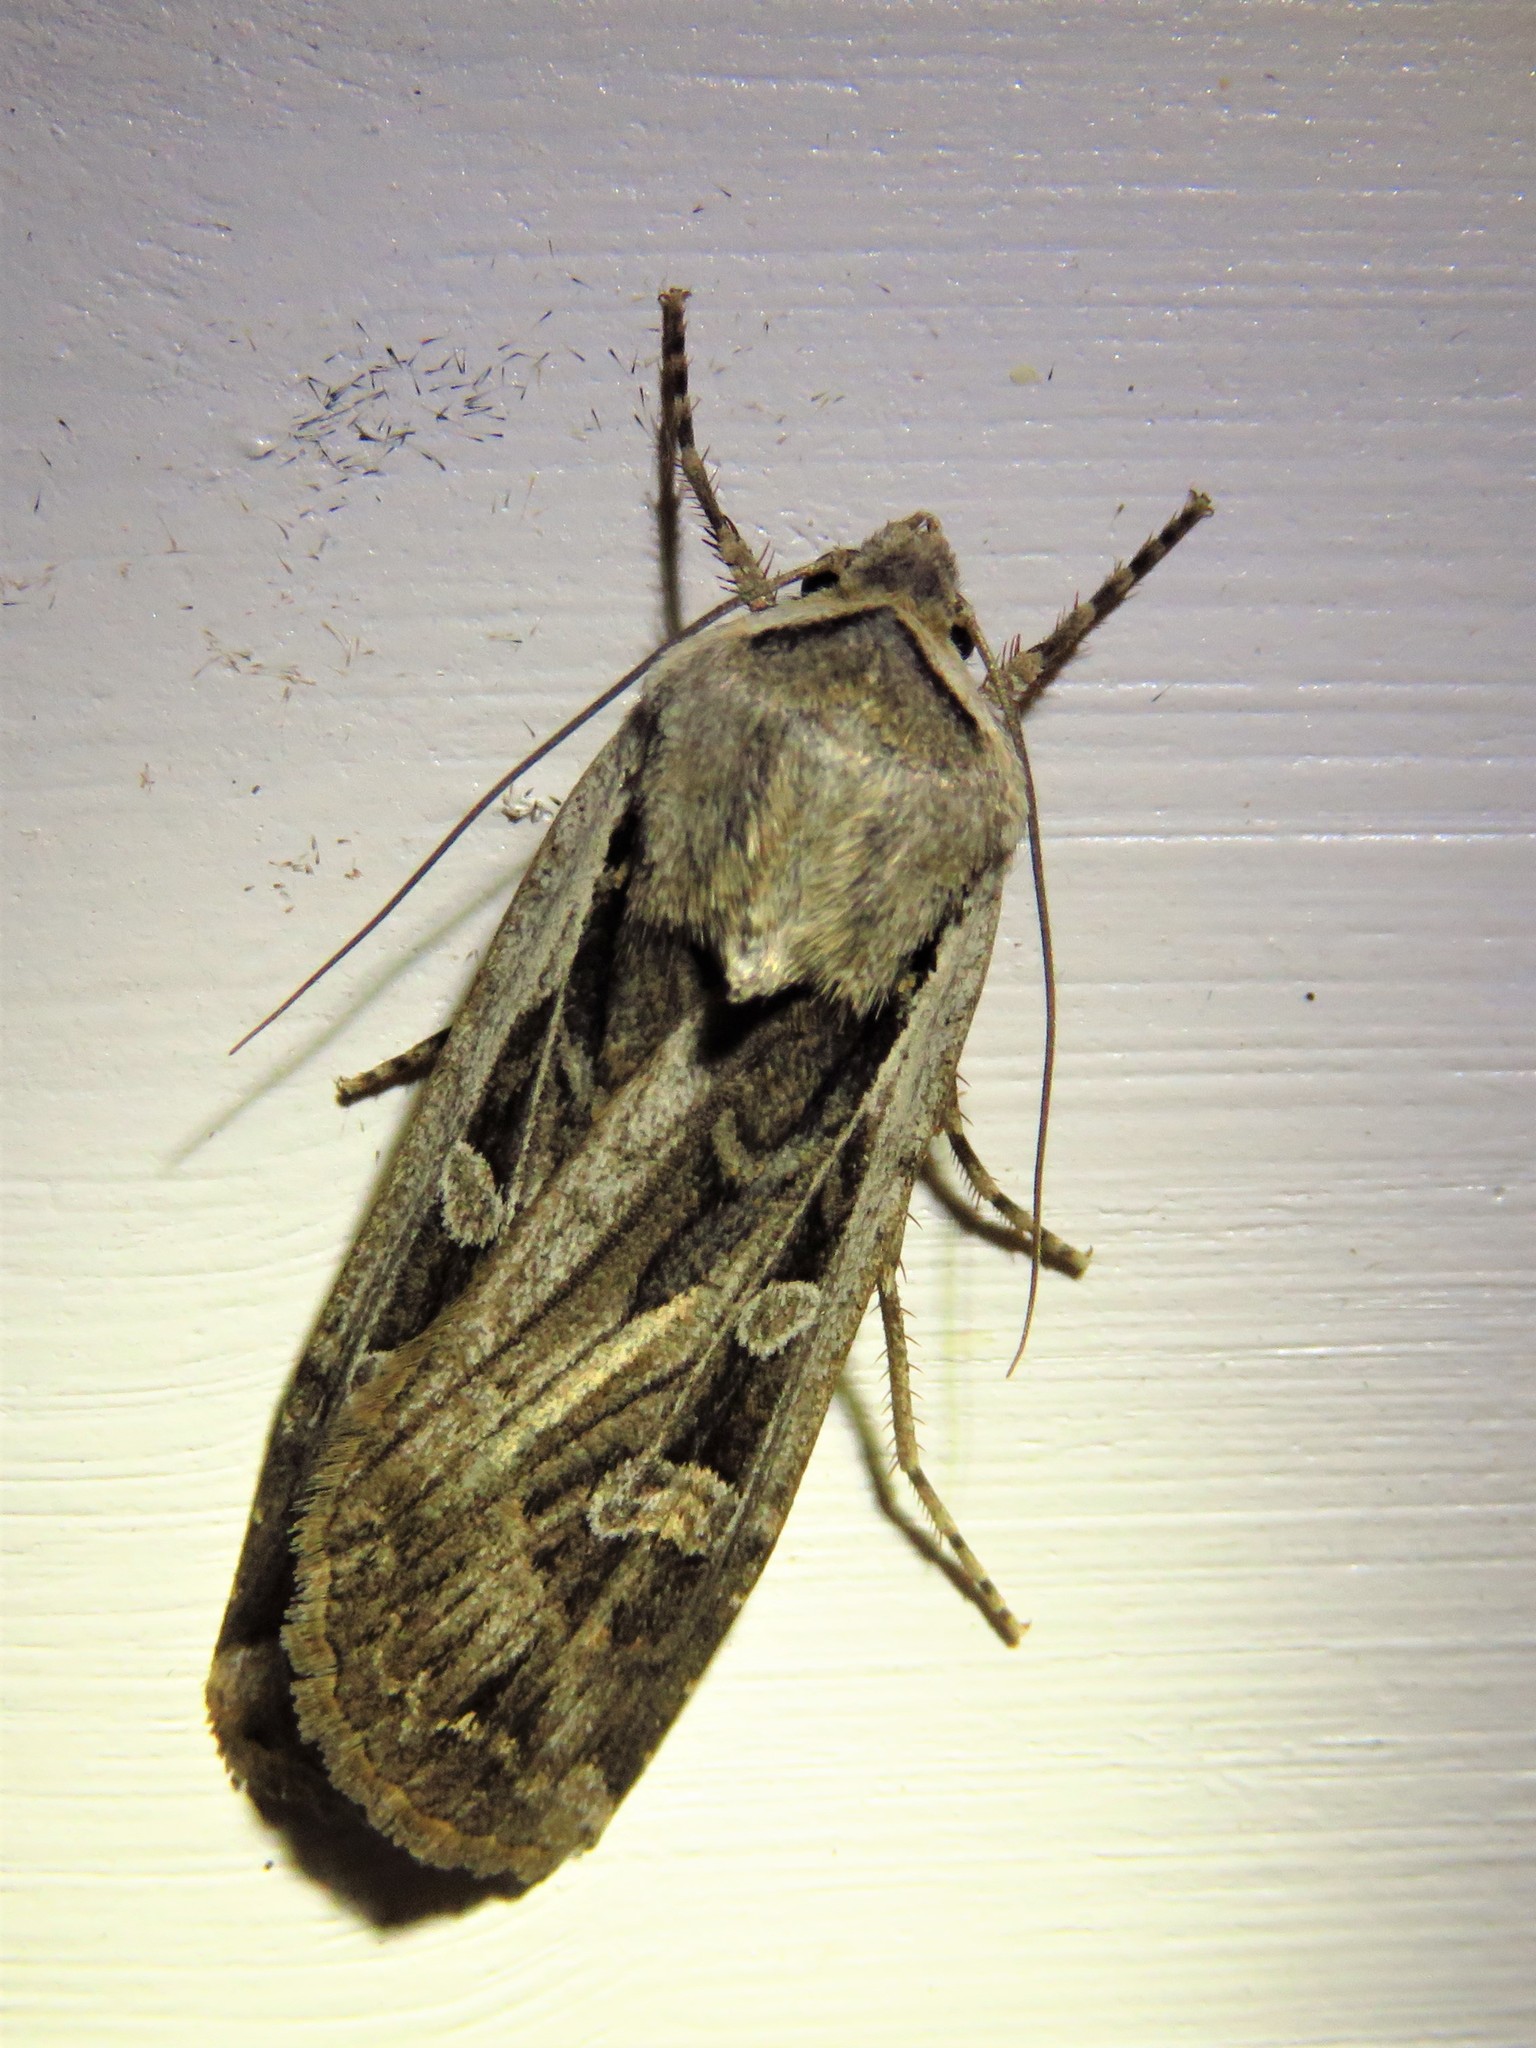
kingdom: Animalia
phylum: Arthropoda
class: Insecta
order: Lepidoptera
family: Noctuidae
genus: Euxoa
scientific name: Euxoa auxiliaris
